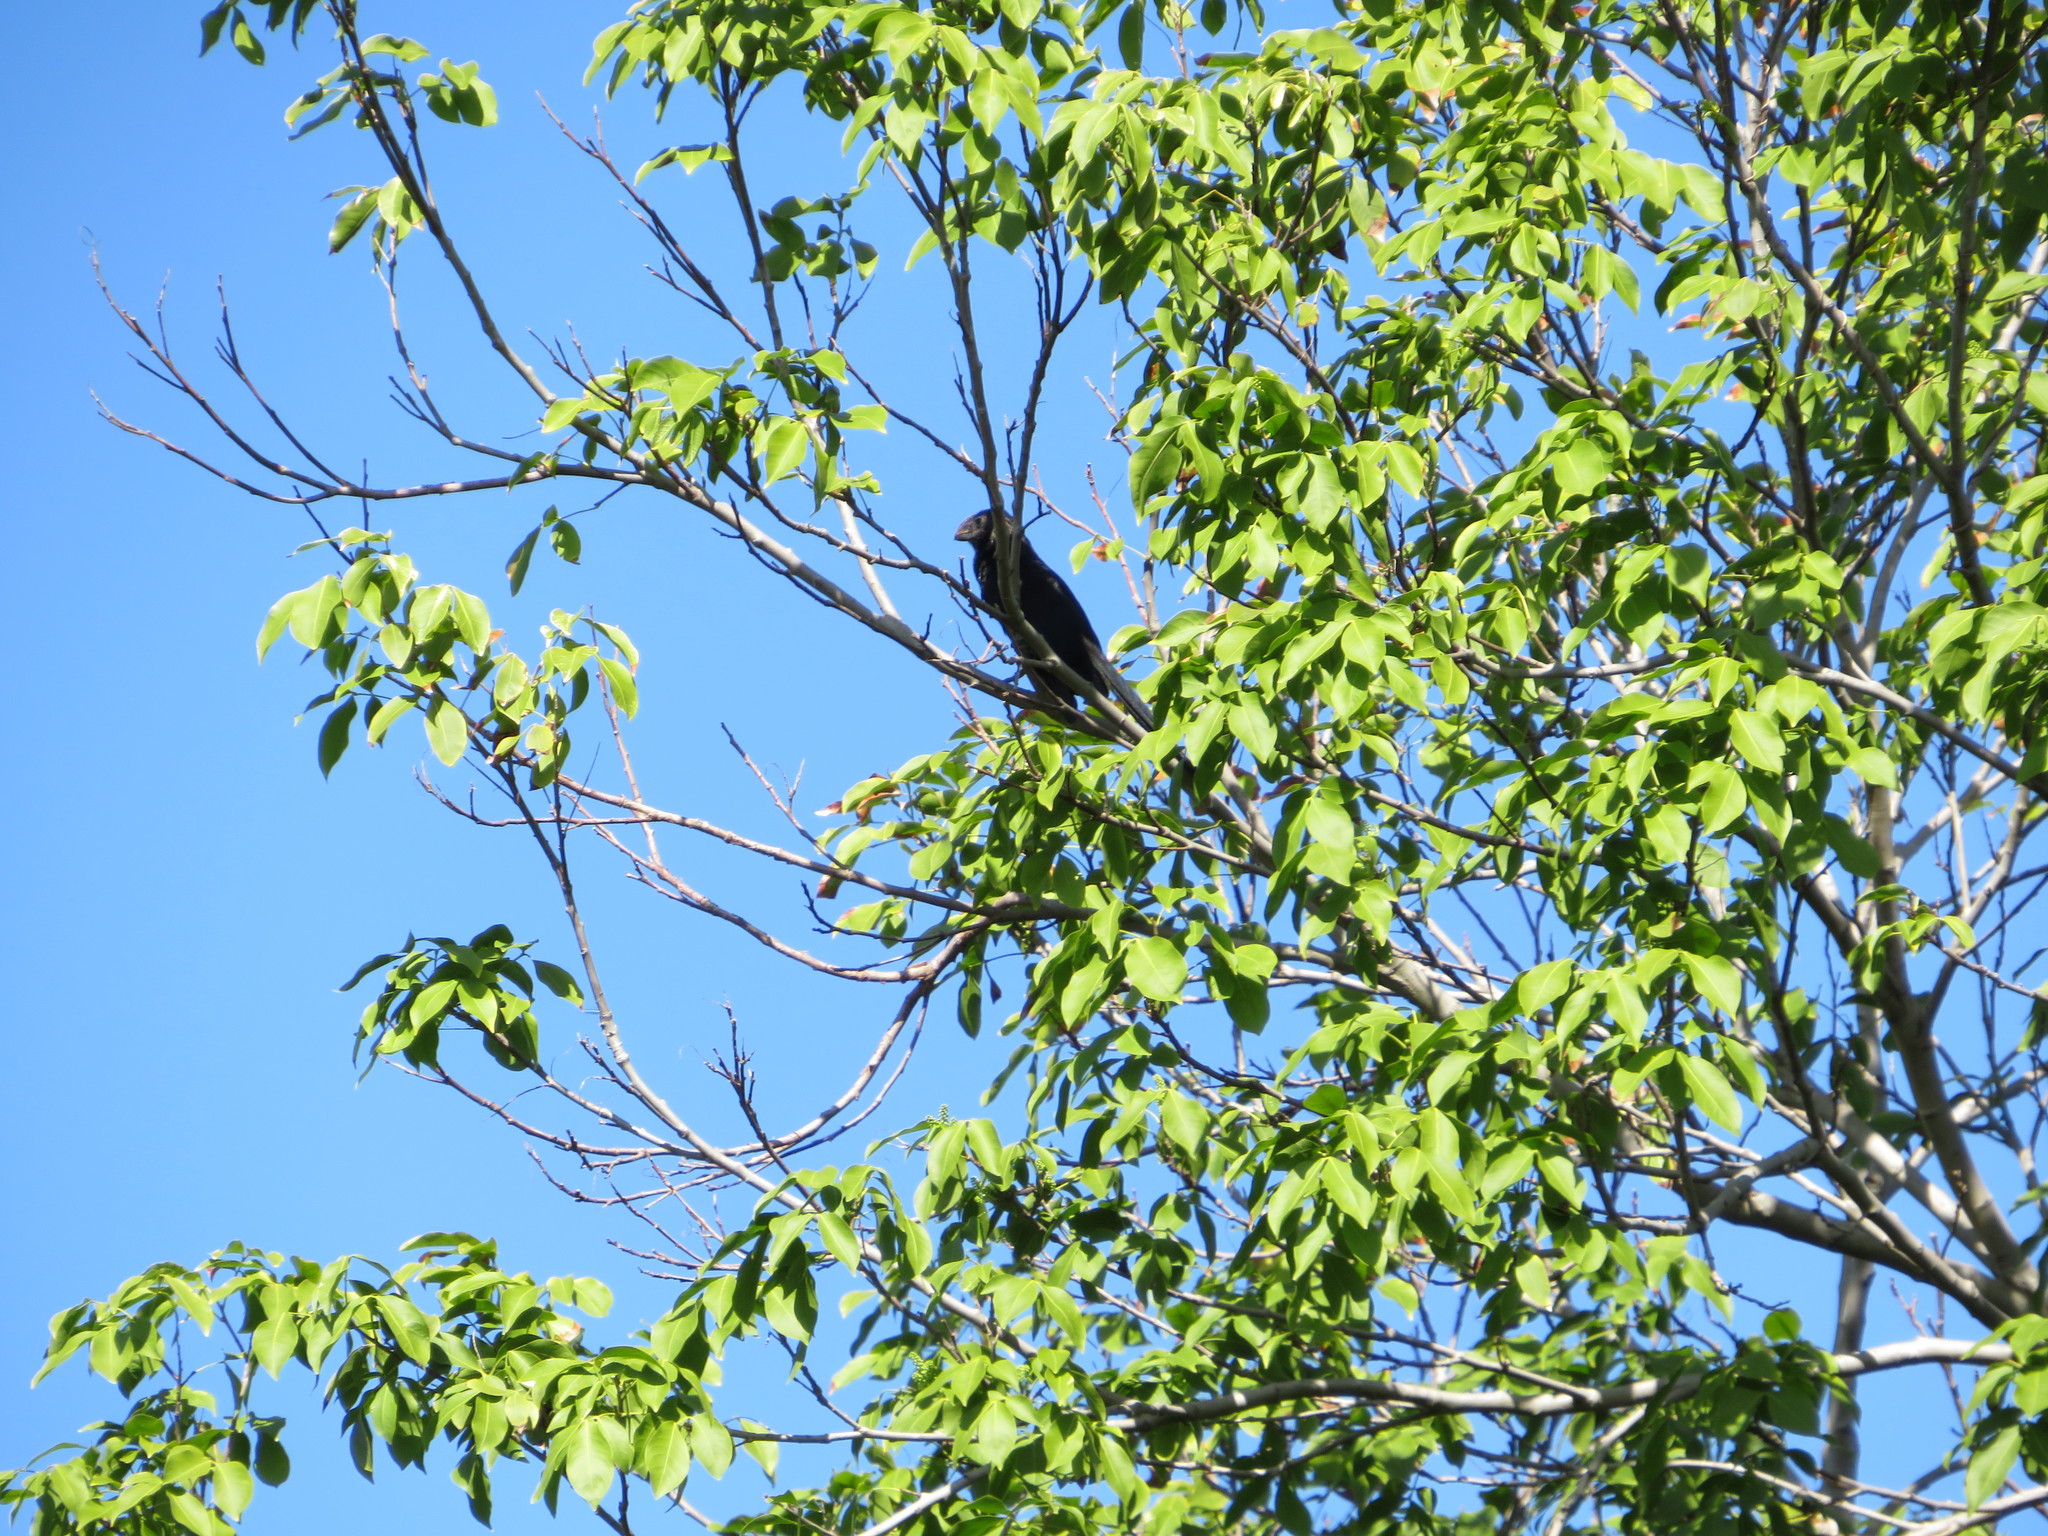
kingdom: Animalia
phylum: Chordata
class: Aves
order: Cuculiformes
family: Cuculidae
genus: Crotophaga
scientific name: Crotophaga ani
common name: Smooth-billed ani
